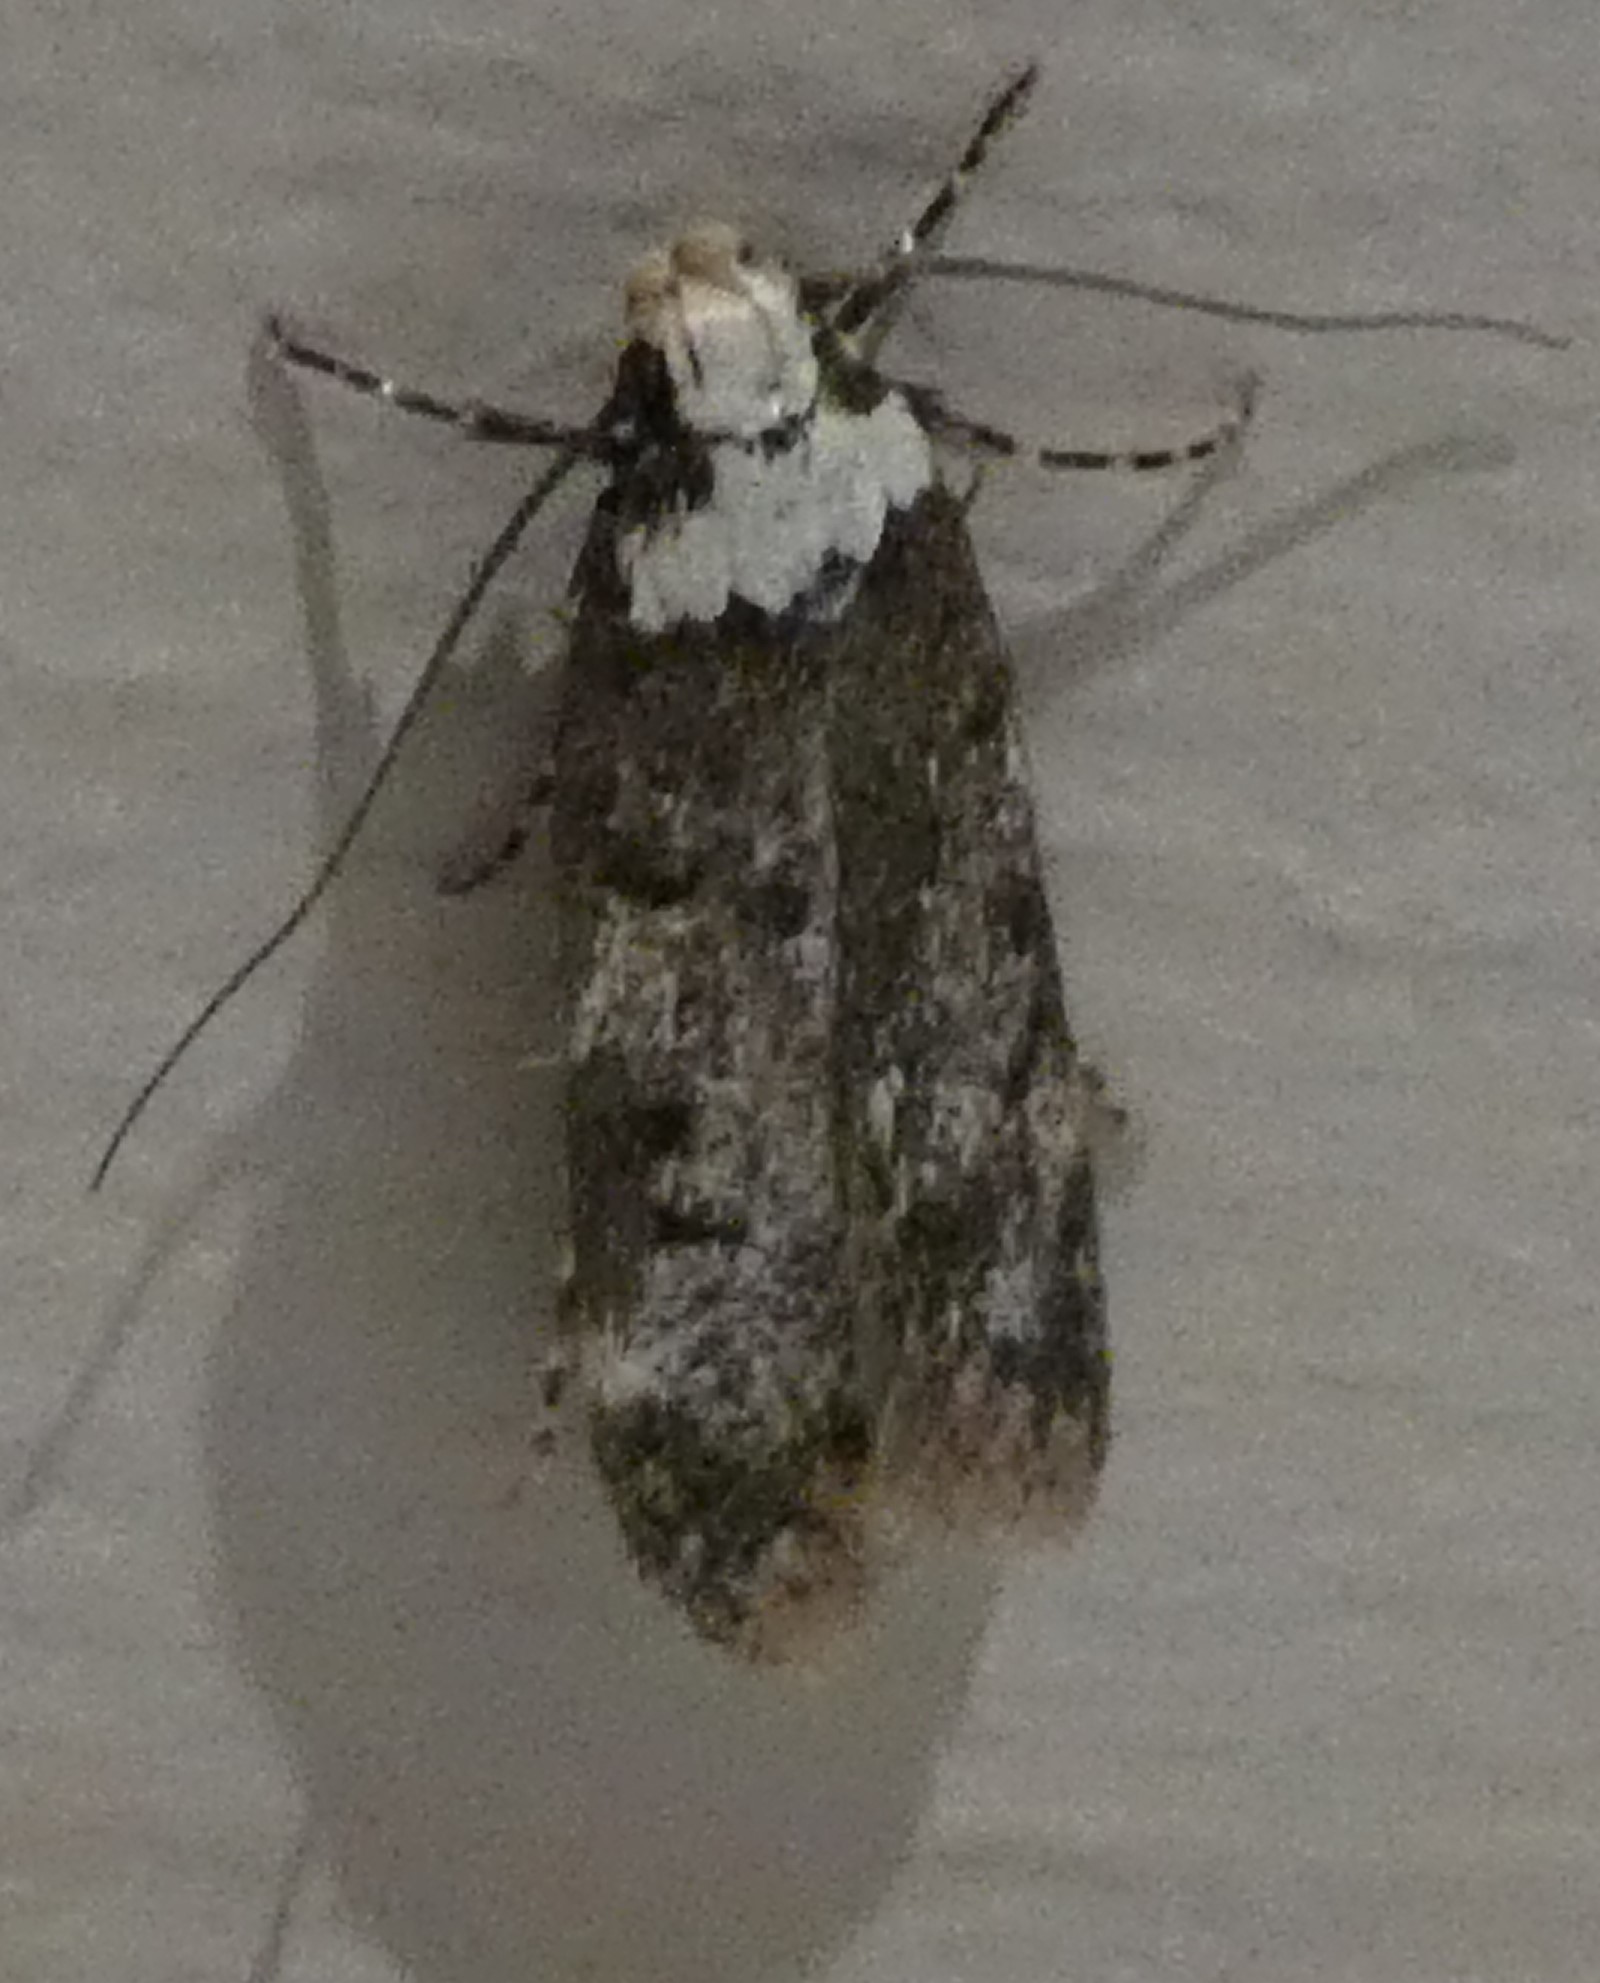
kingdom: Animalia
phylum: Arthropoda
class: Insecta
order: Lepidoptera
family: Oecophoridae
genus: Endrosis
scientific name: Endrosis sarcitrella
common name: White-shouldered house moth
